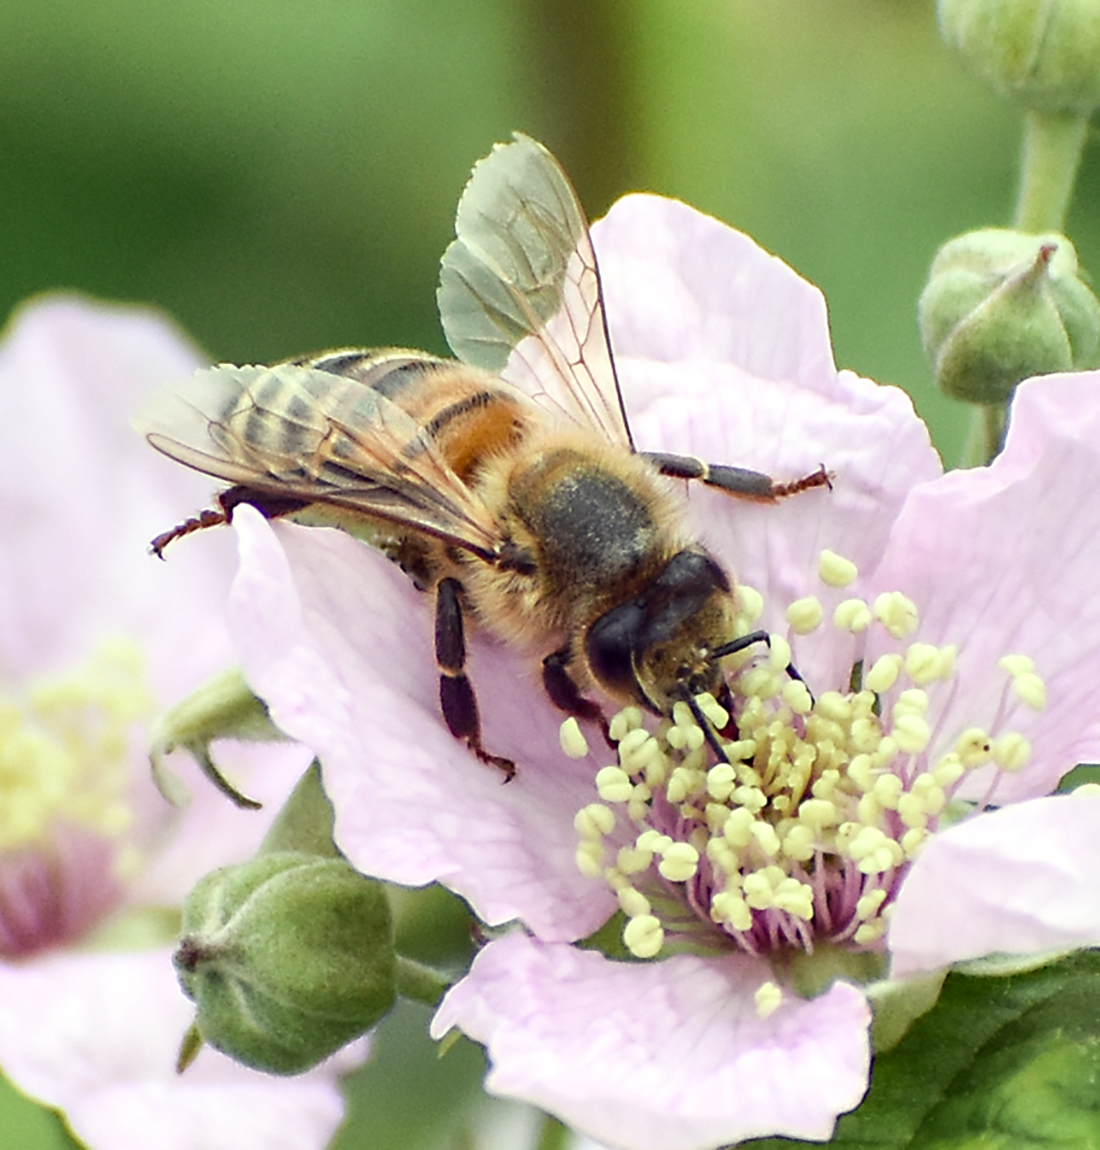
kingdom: Animalia
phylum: Arthropoda
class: Insecta
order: Hymenoptera
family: Apidae
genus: Apis
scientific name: Apis mellifera
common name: Honey bee
